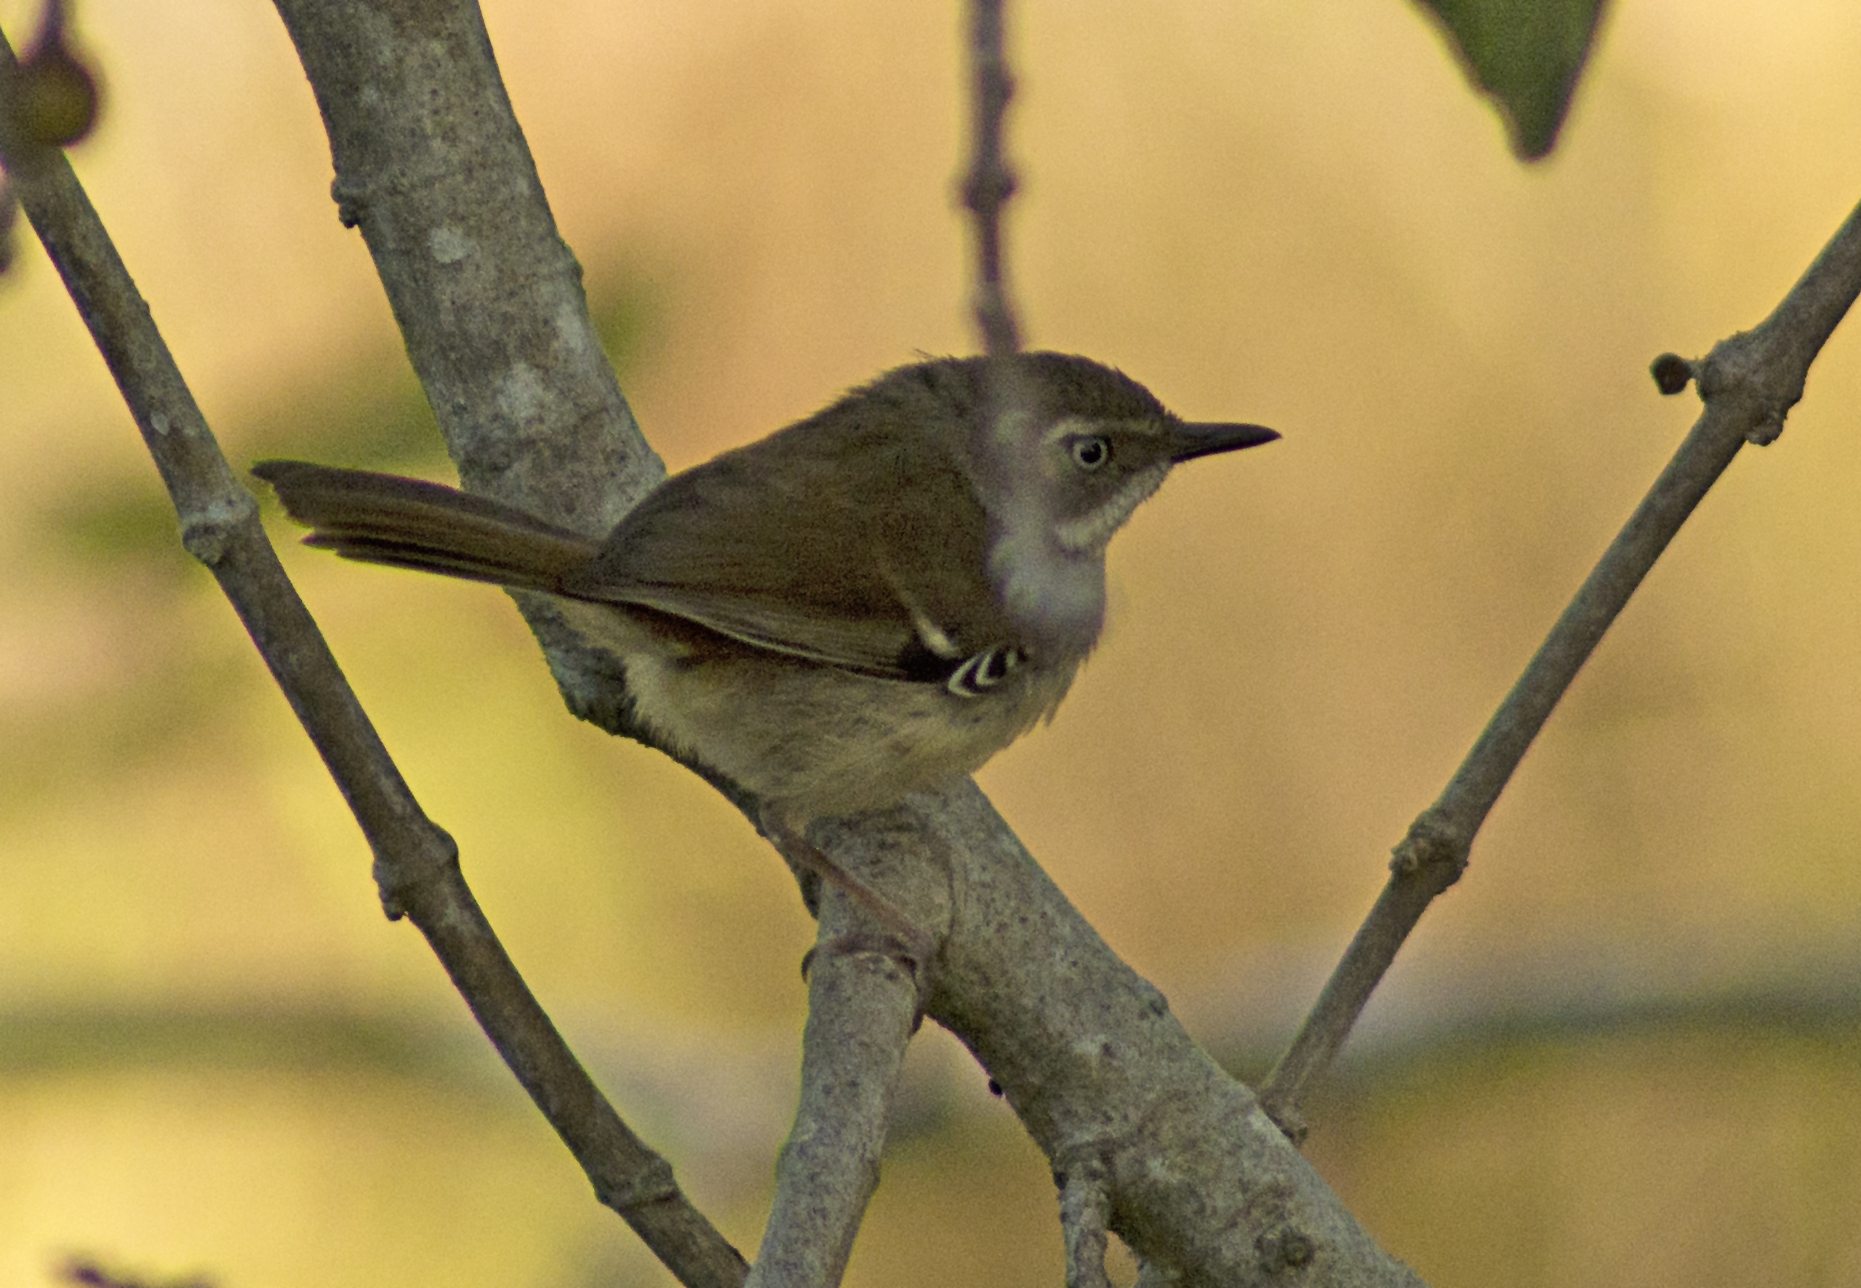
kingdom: Animalia
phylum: Chordata
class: Aves
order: Passeriformes
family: Acanthizidae
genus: Sericornis
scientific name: Sericornis frontalis
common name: White-browed scrubwren
